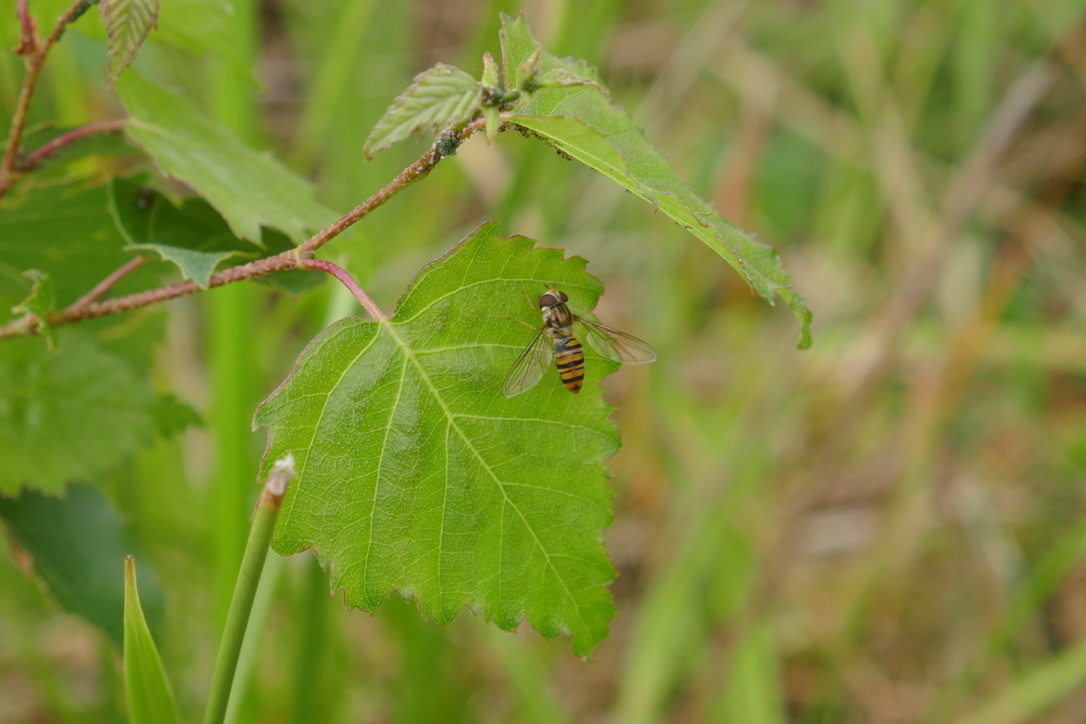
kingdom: Animalia
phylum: Arthropoda
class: Insecta
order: Diptera
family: Syrphidae
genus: Episyrphus
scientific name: Episyrphus balteatus
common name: Marmalade hoverfly
